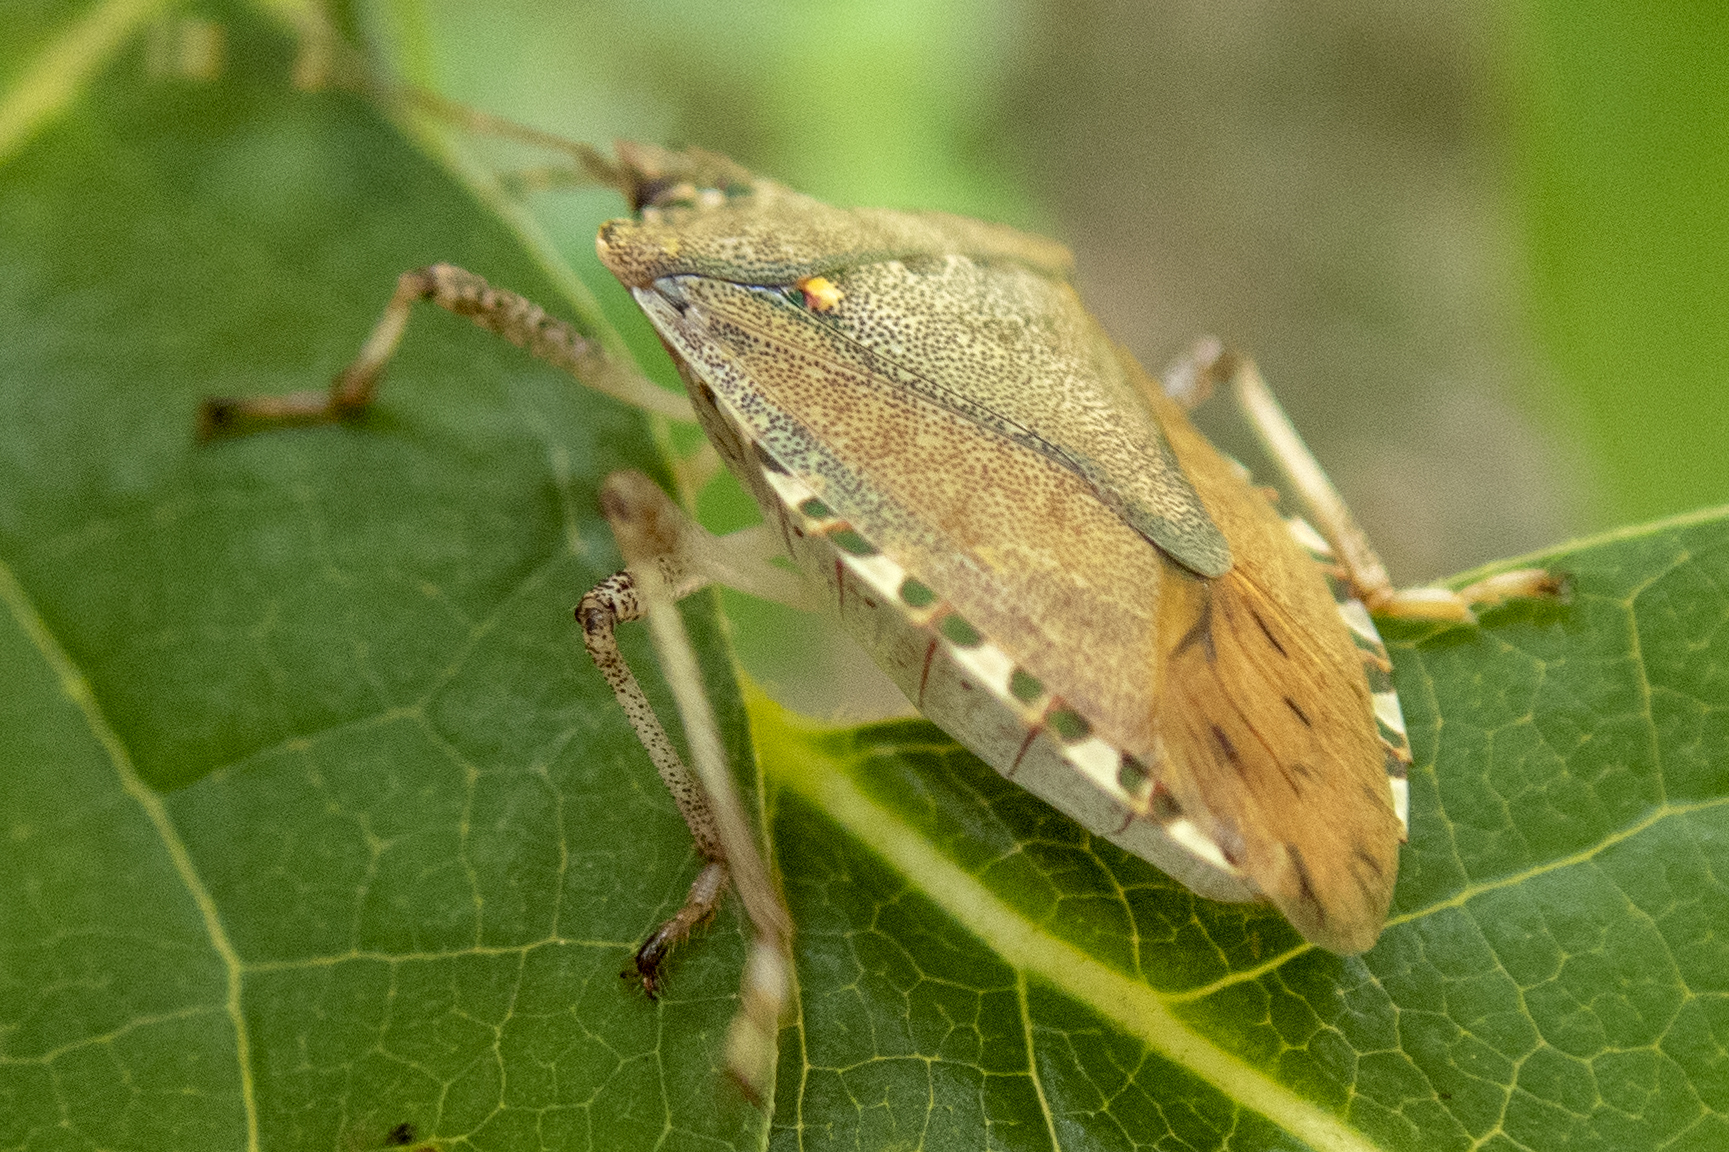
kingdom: Animalia
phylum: Arthropoda
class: Insecta
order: Hemiptera
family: Pentatomidae
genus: Halyomorpha
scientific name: Halyomorpha halys
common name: Brown marmorated stink bug
